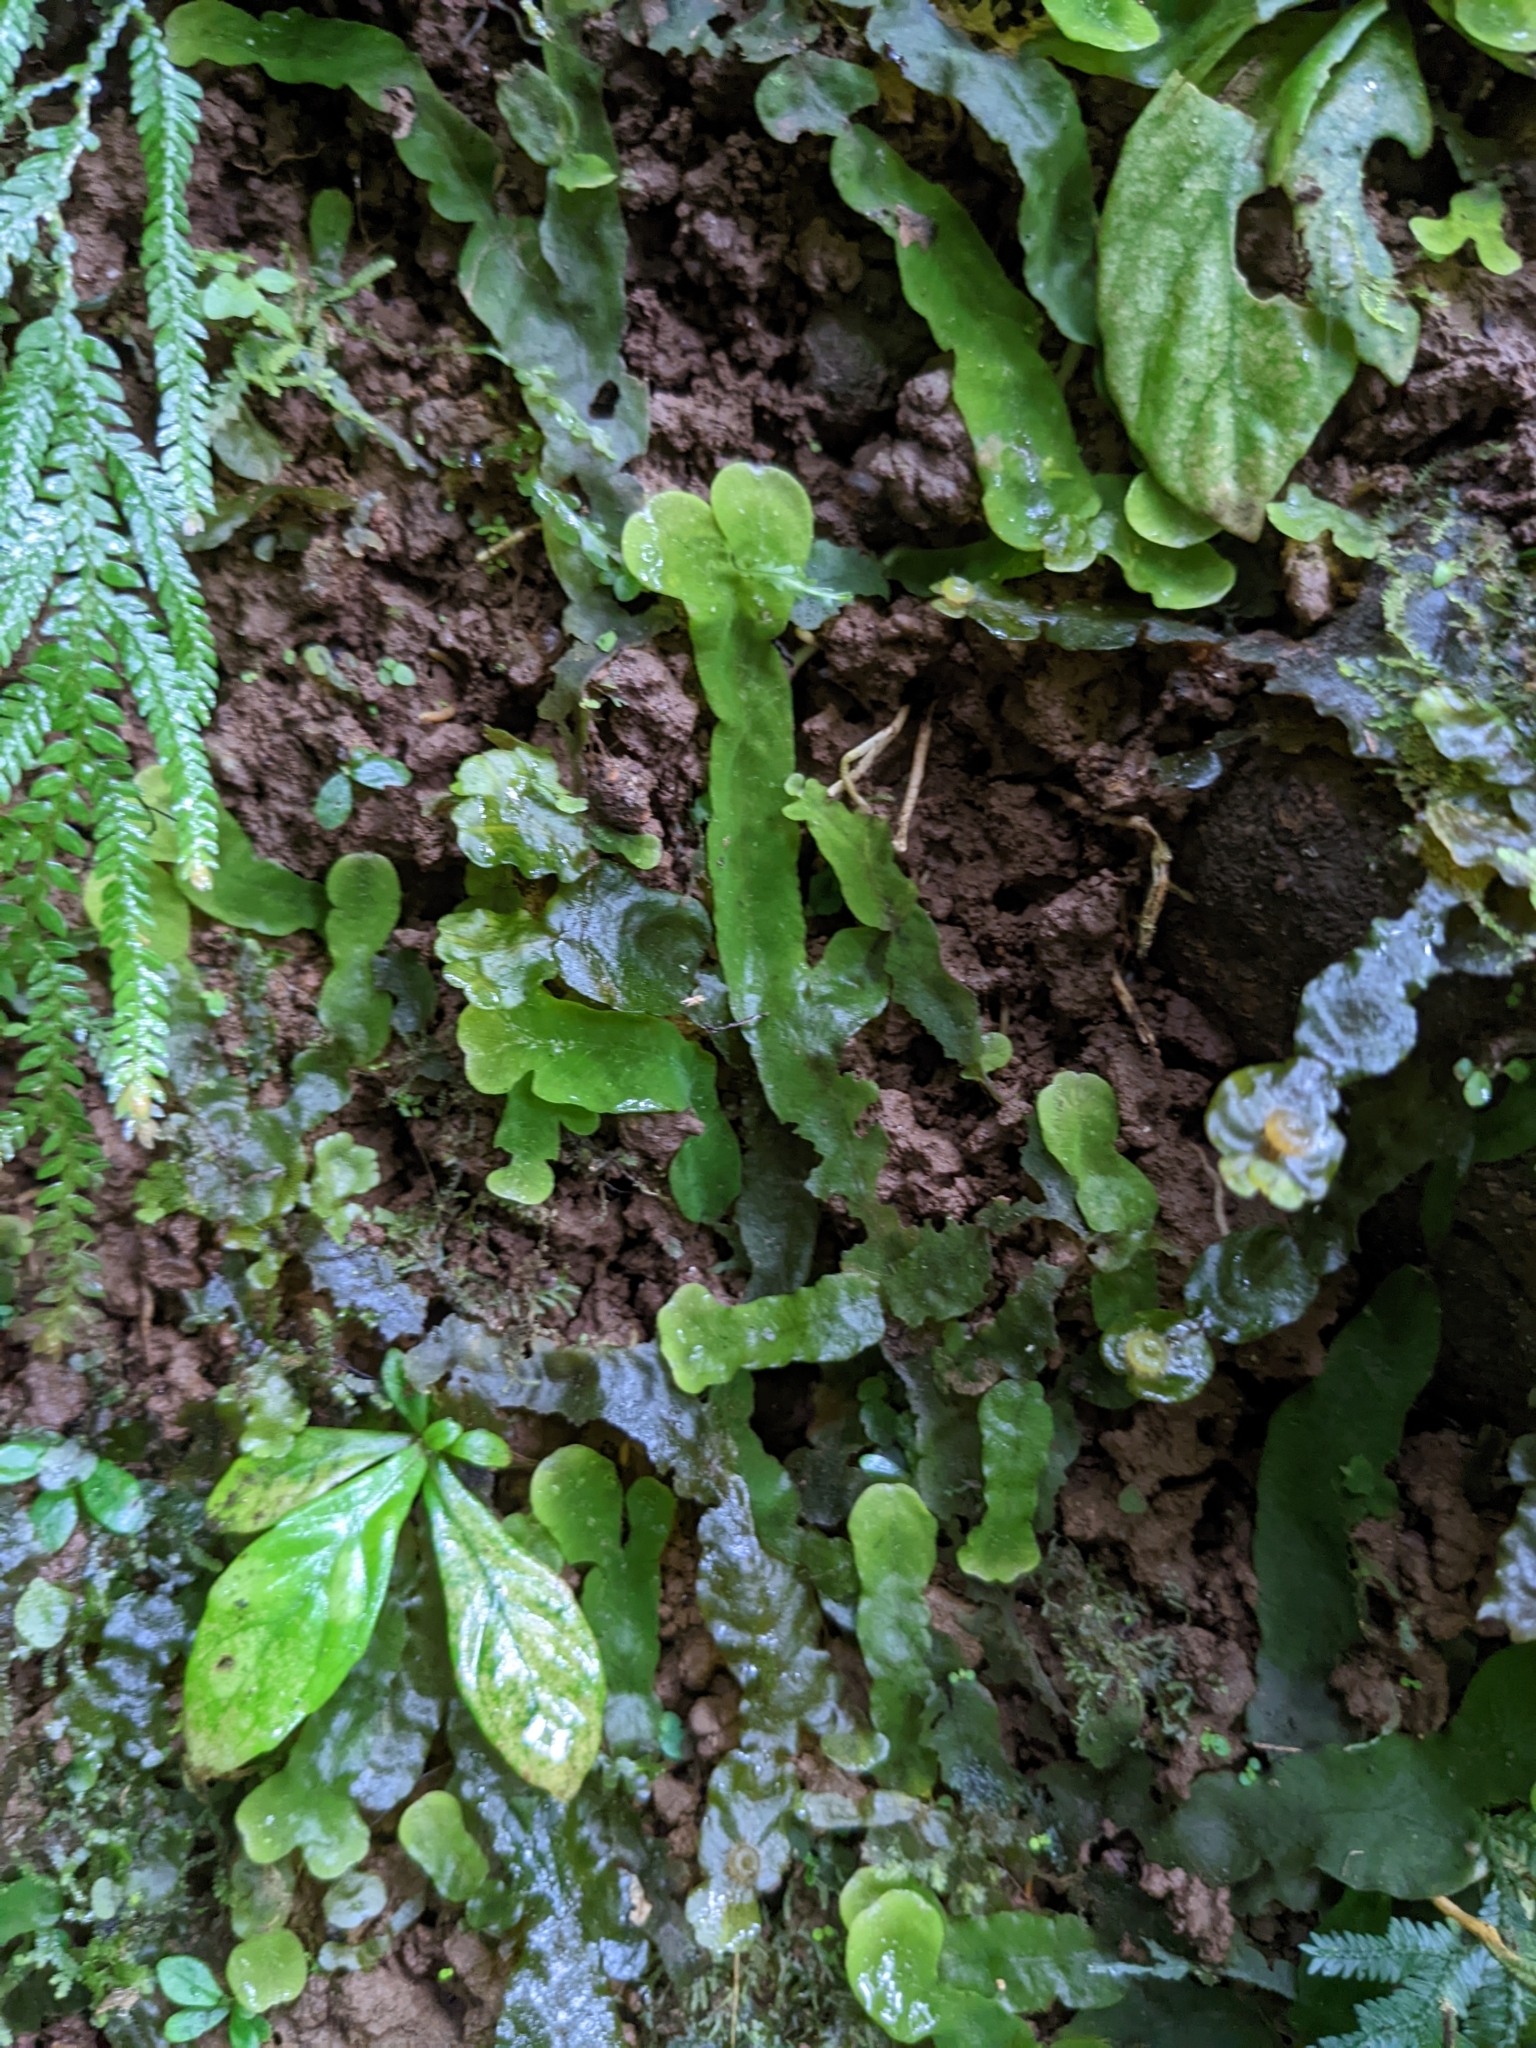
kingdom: Plantae
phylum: Marchantiophyta
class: Marchantiopsida
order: Marchantiales
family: Dumortieraceae
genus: Dumortiera
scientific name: Dumortiera hirsuta
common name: Dumortier's liverwort
